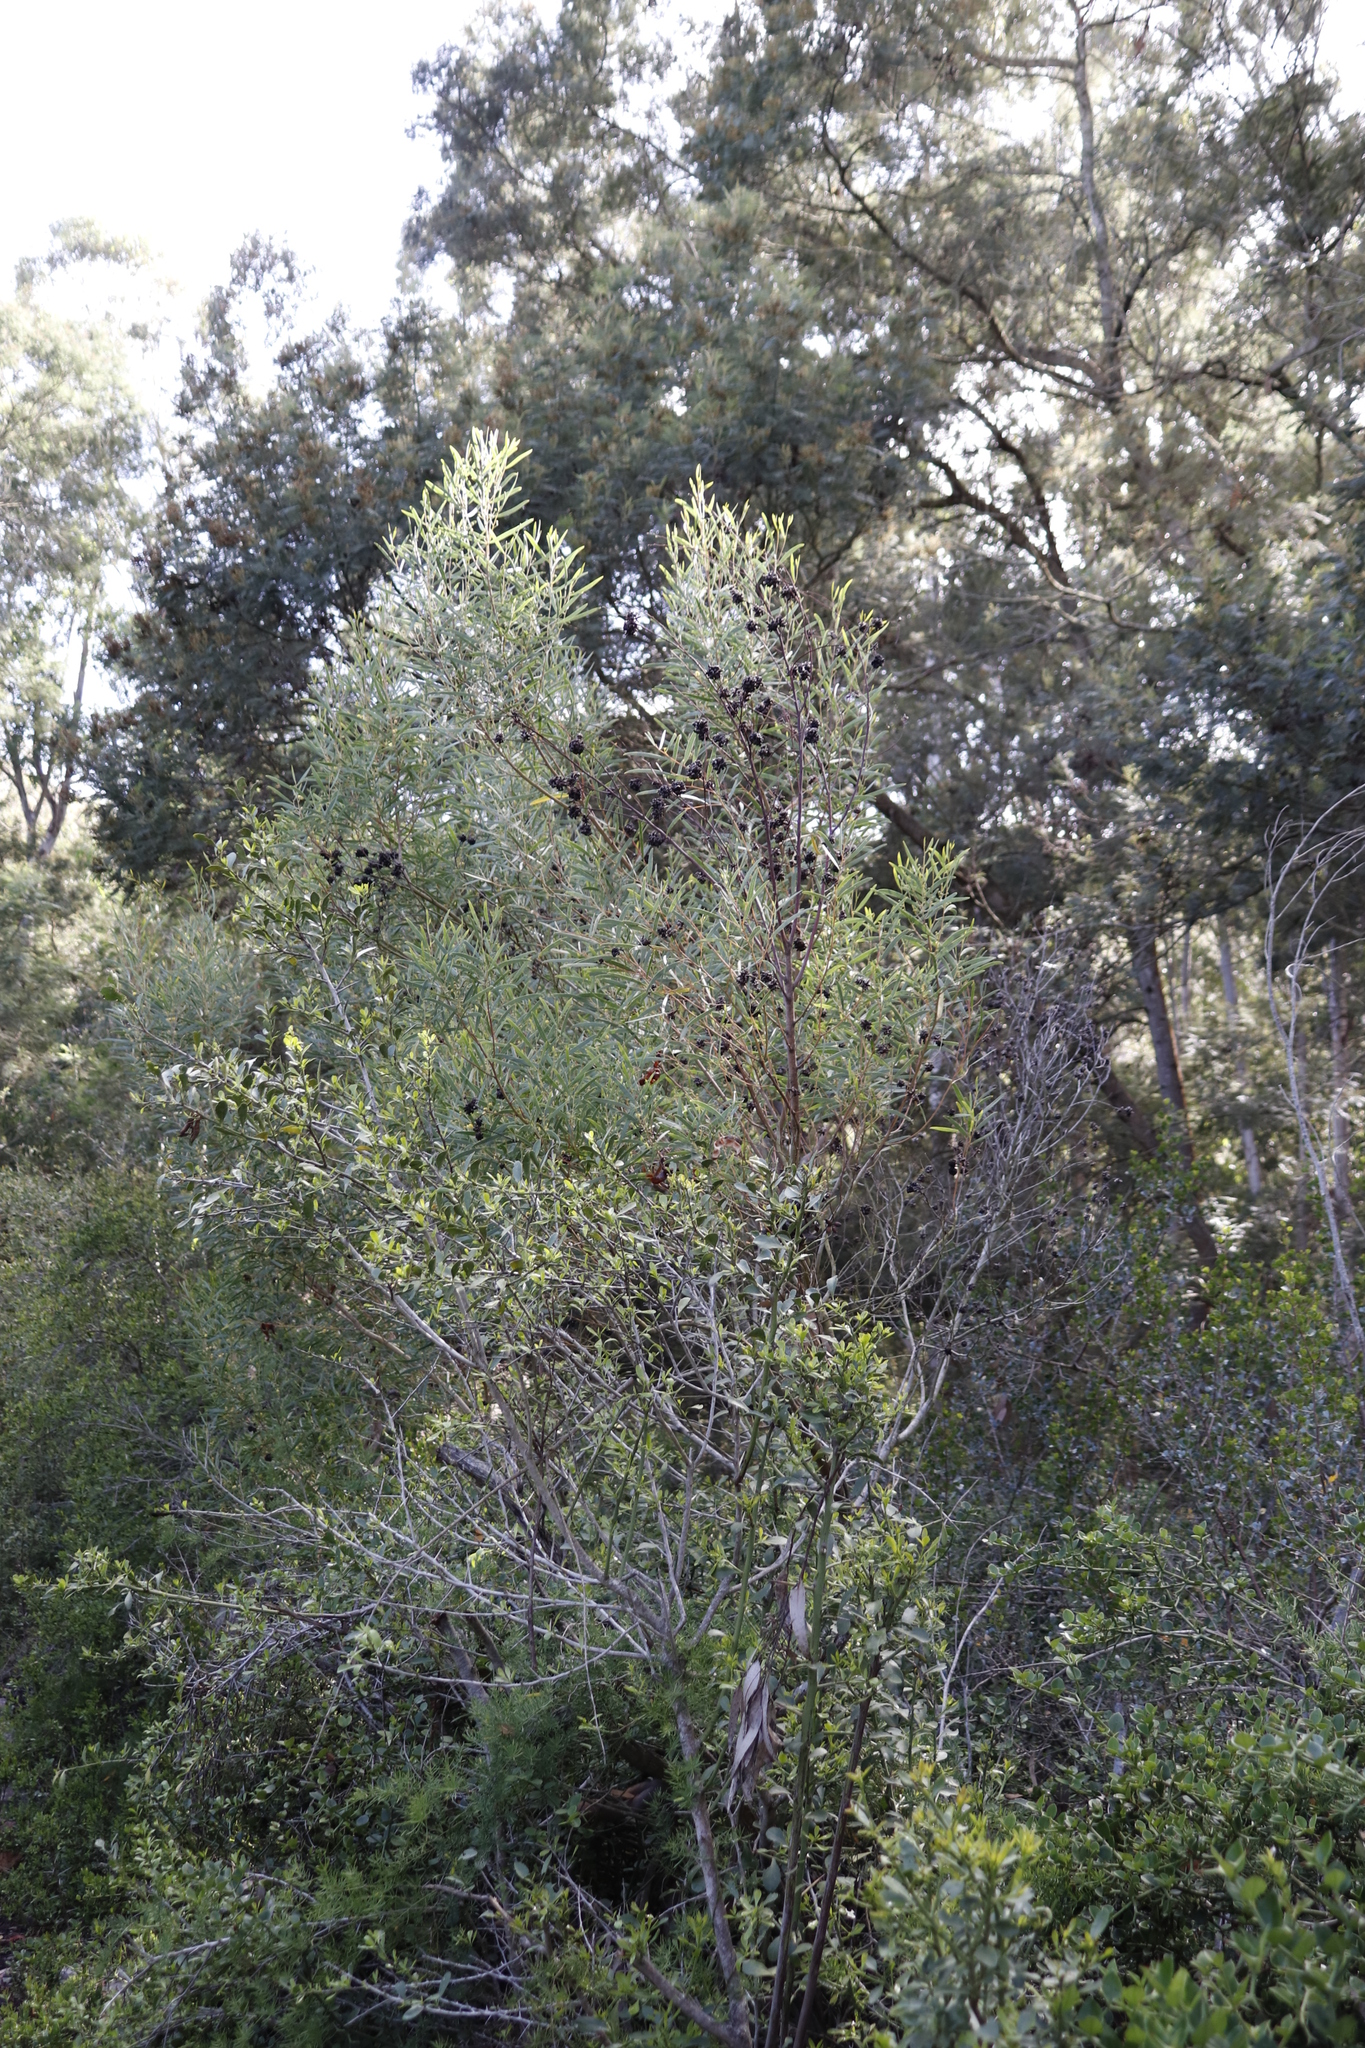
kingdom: Plantae
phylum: Tracheophyta
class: Magnoliopsida
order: Fabales
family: Fabaceae
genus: Acacia
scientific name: Acacia cyclops
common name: Coastal wattle
